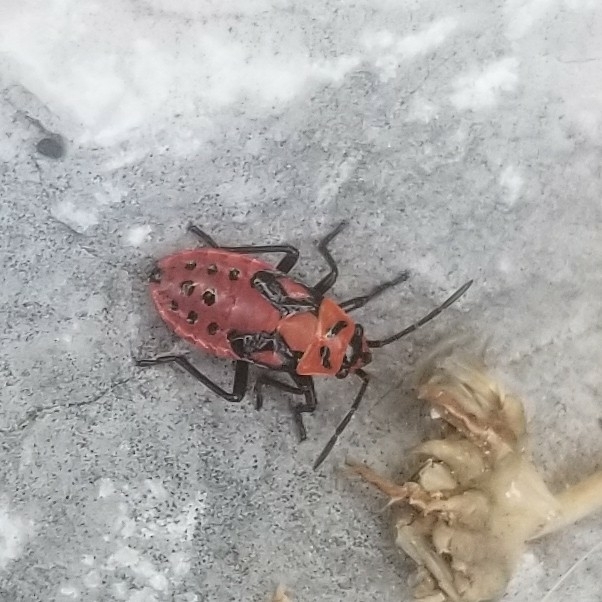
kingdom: Animalia
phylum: Arthropoda
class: Insecta
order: Hemiptera
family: Lygaeidae
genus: Spilostethus
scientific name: Spilostethus saxatilis
